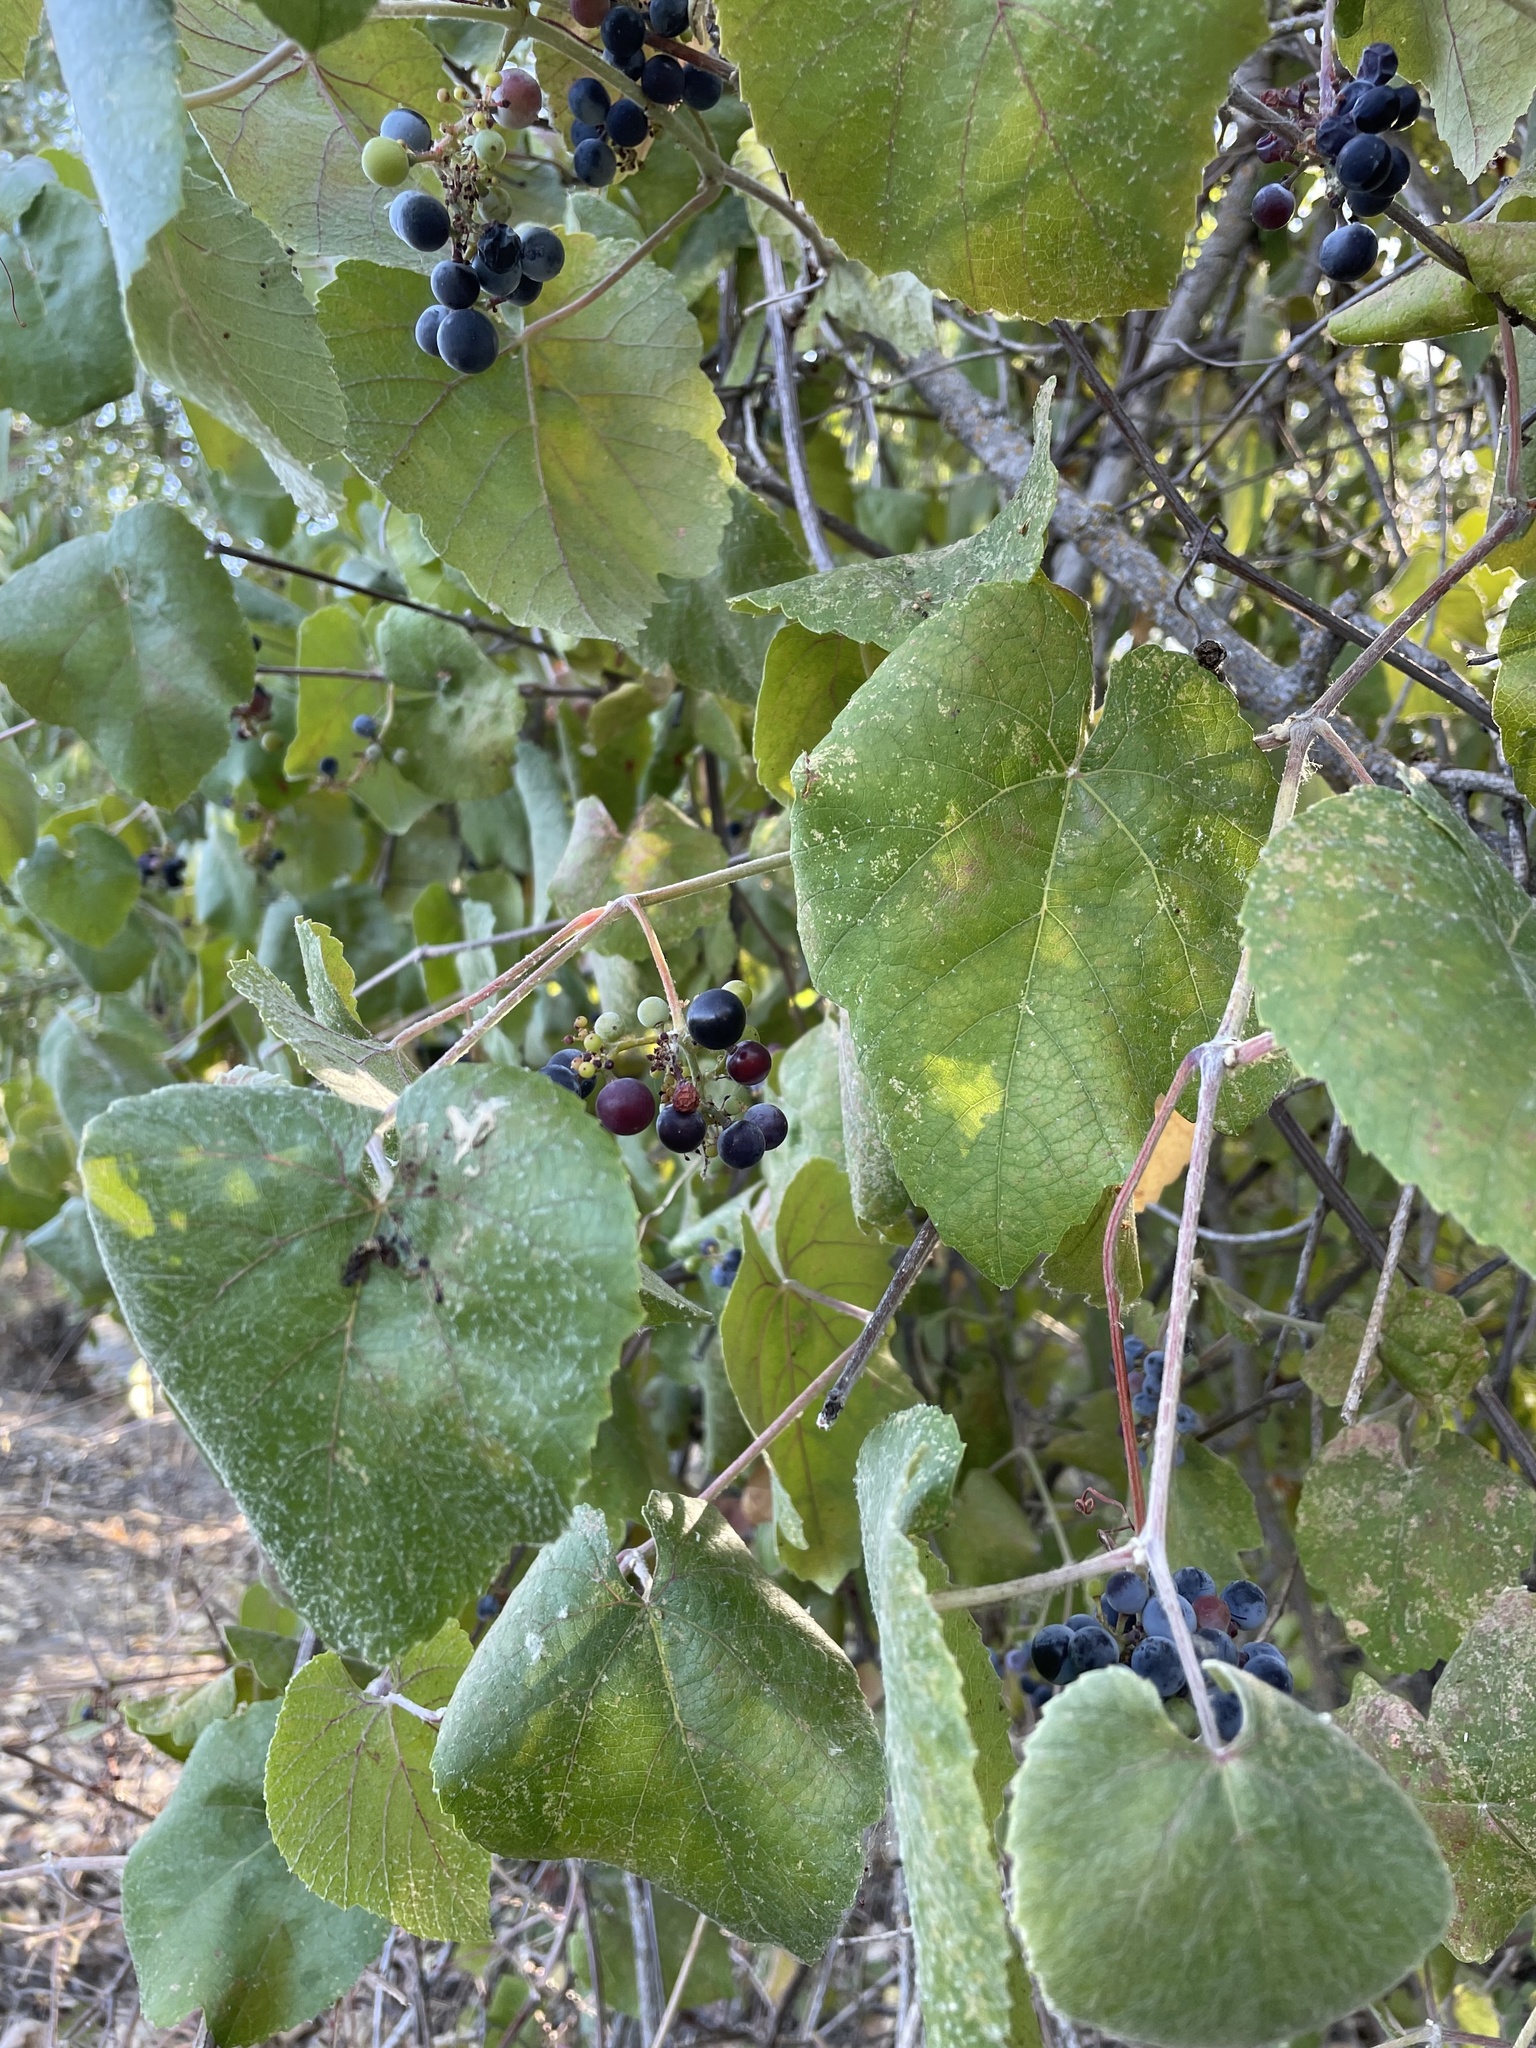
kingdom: Plantae
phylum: Tracheophyta
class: Magnoliopsida
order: Vitales
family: Vitaceae
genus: Vitis
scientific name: Vitis californica
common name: California wild grape
